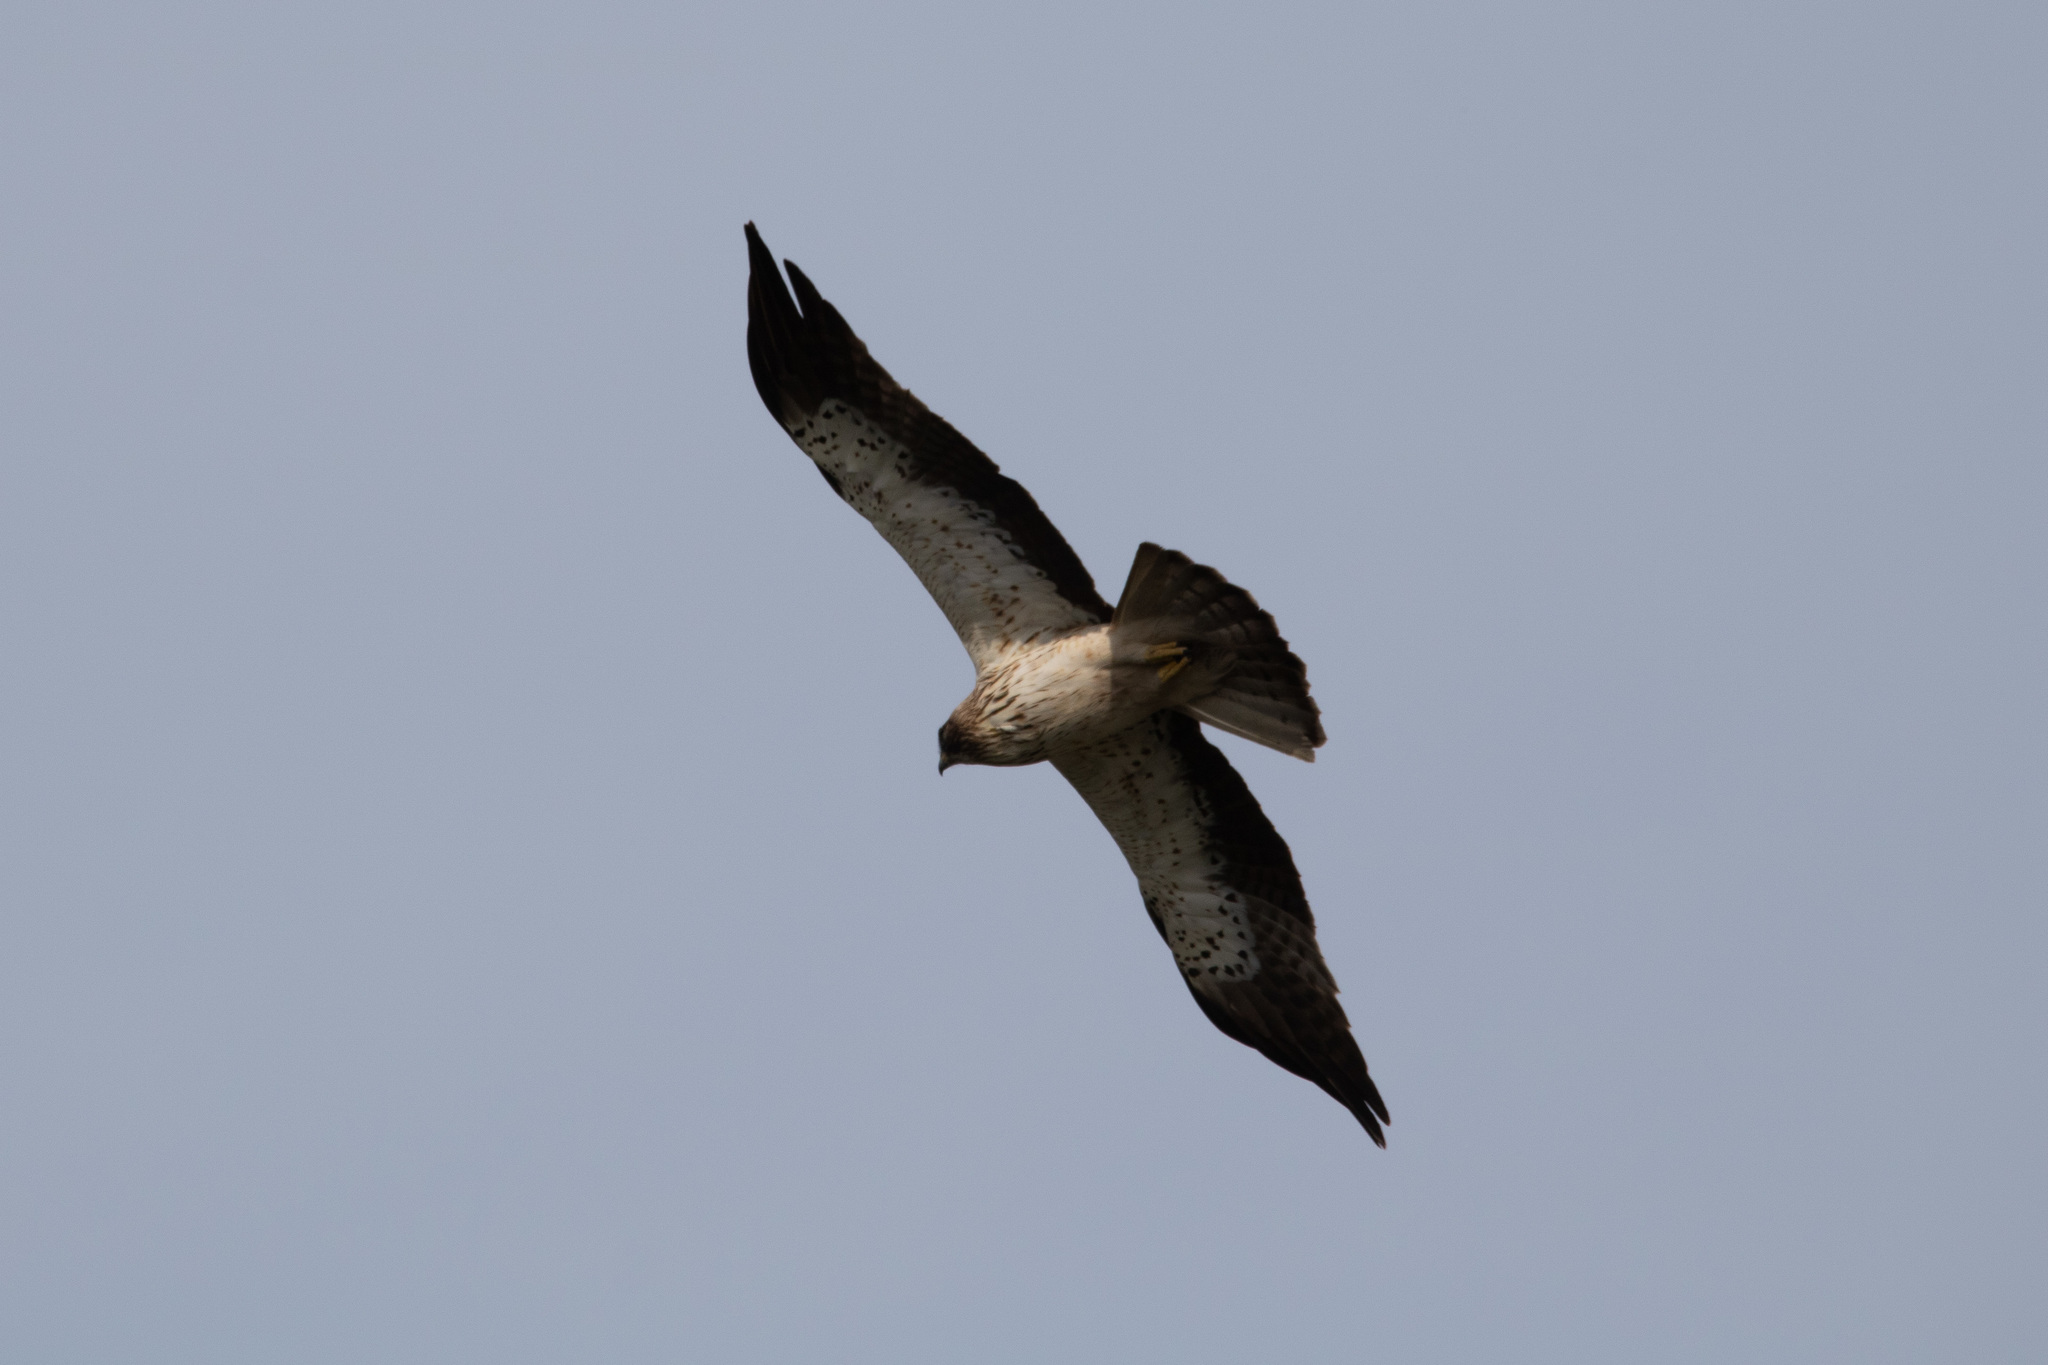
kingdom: Animalia
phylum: Chordata
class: Aves
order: Accipitriformes
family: Accipitridae
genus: Hieraaetus
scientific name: Hieraaetus pennatus
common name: Booted eagle
